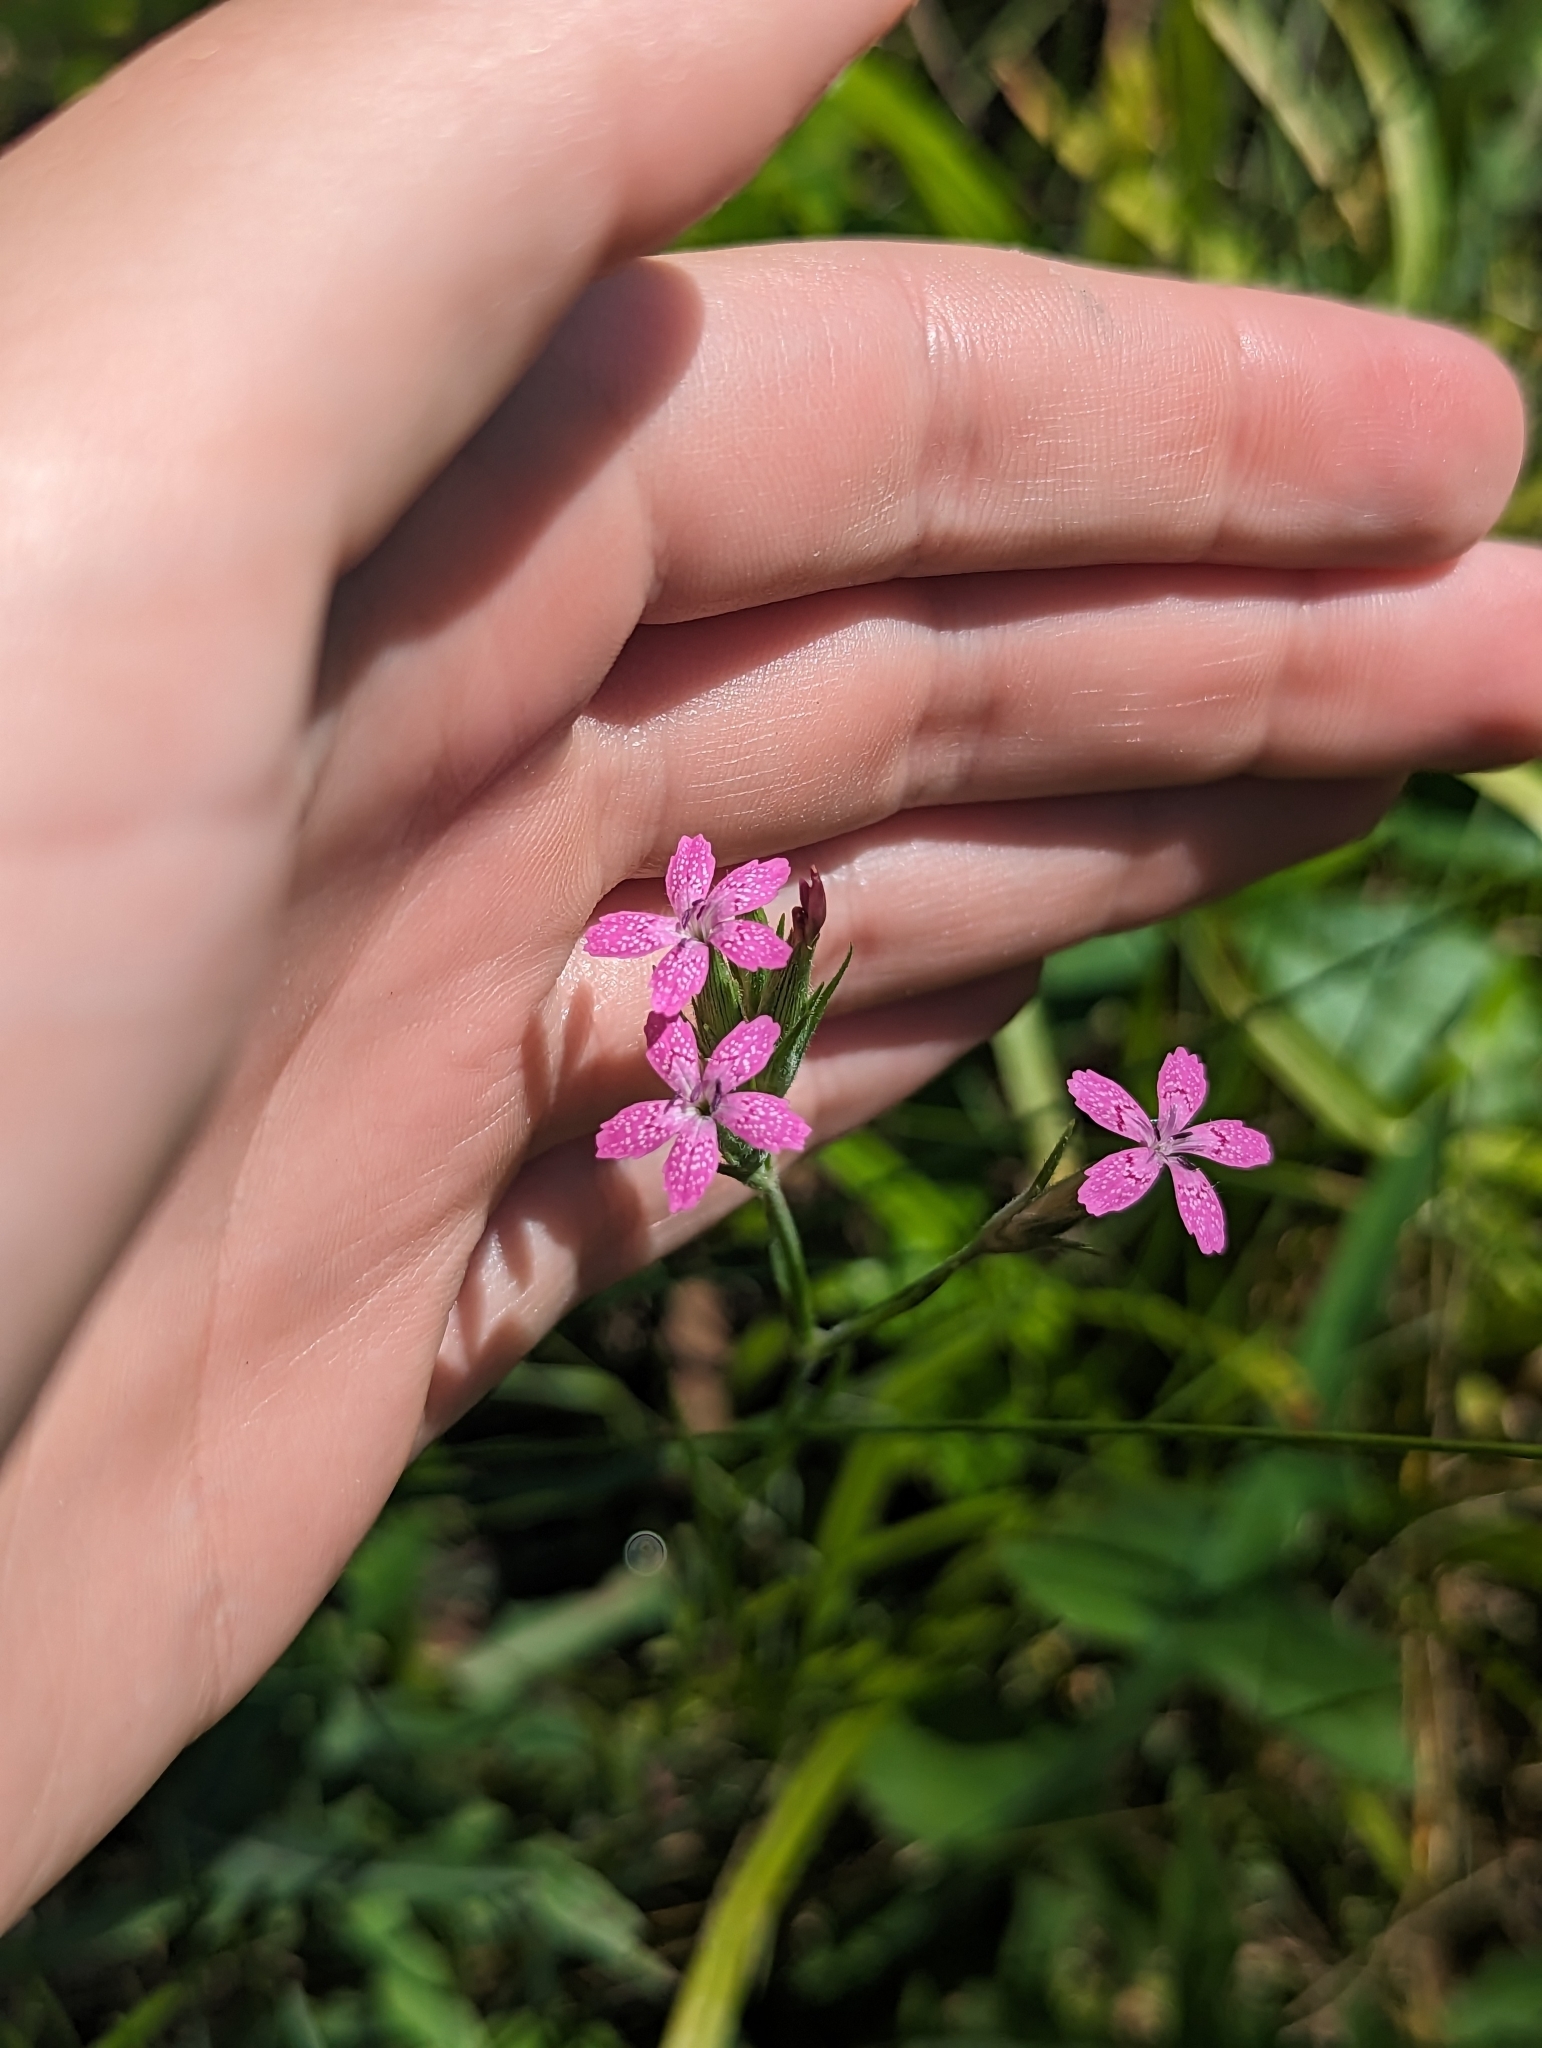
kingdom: Plantae
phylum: Tracheophyta
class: Magnoliopsida
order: Caryophyllales
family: Caryophyllaceae
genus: Dianthus
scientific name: Dianthus armeria
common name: Deptford pink
